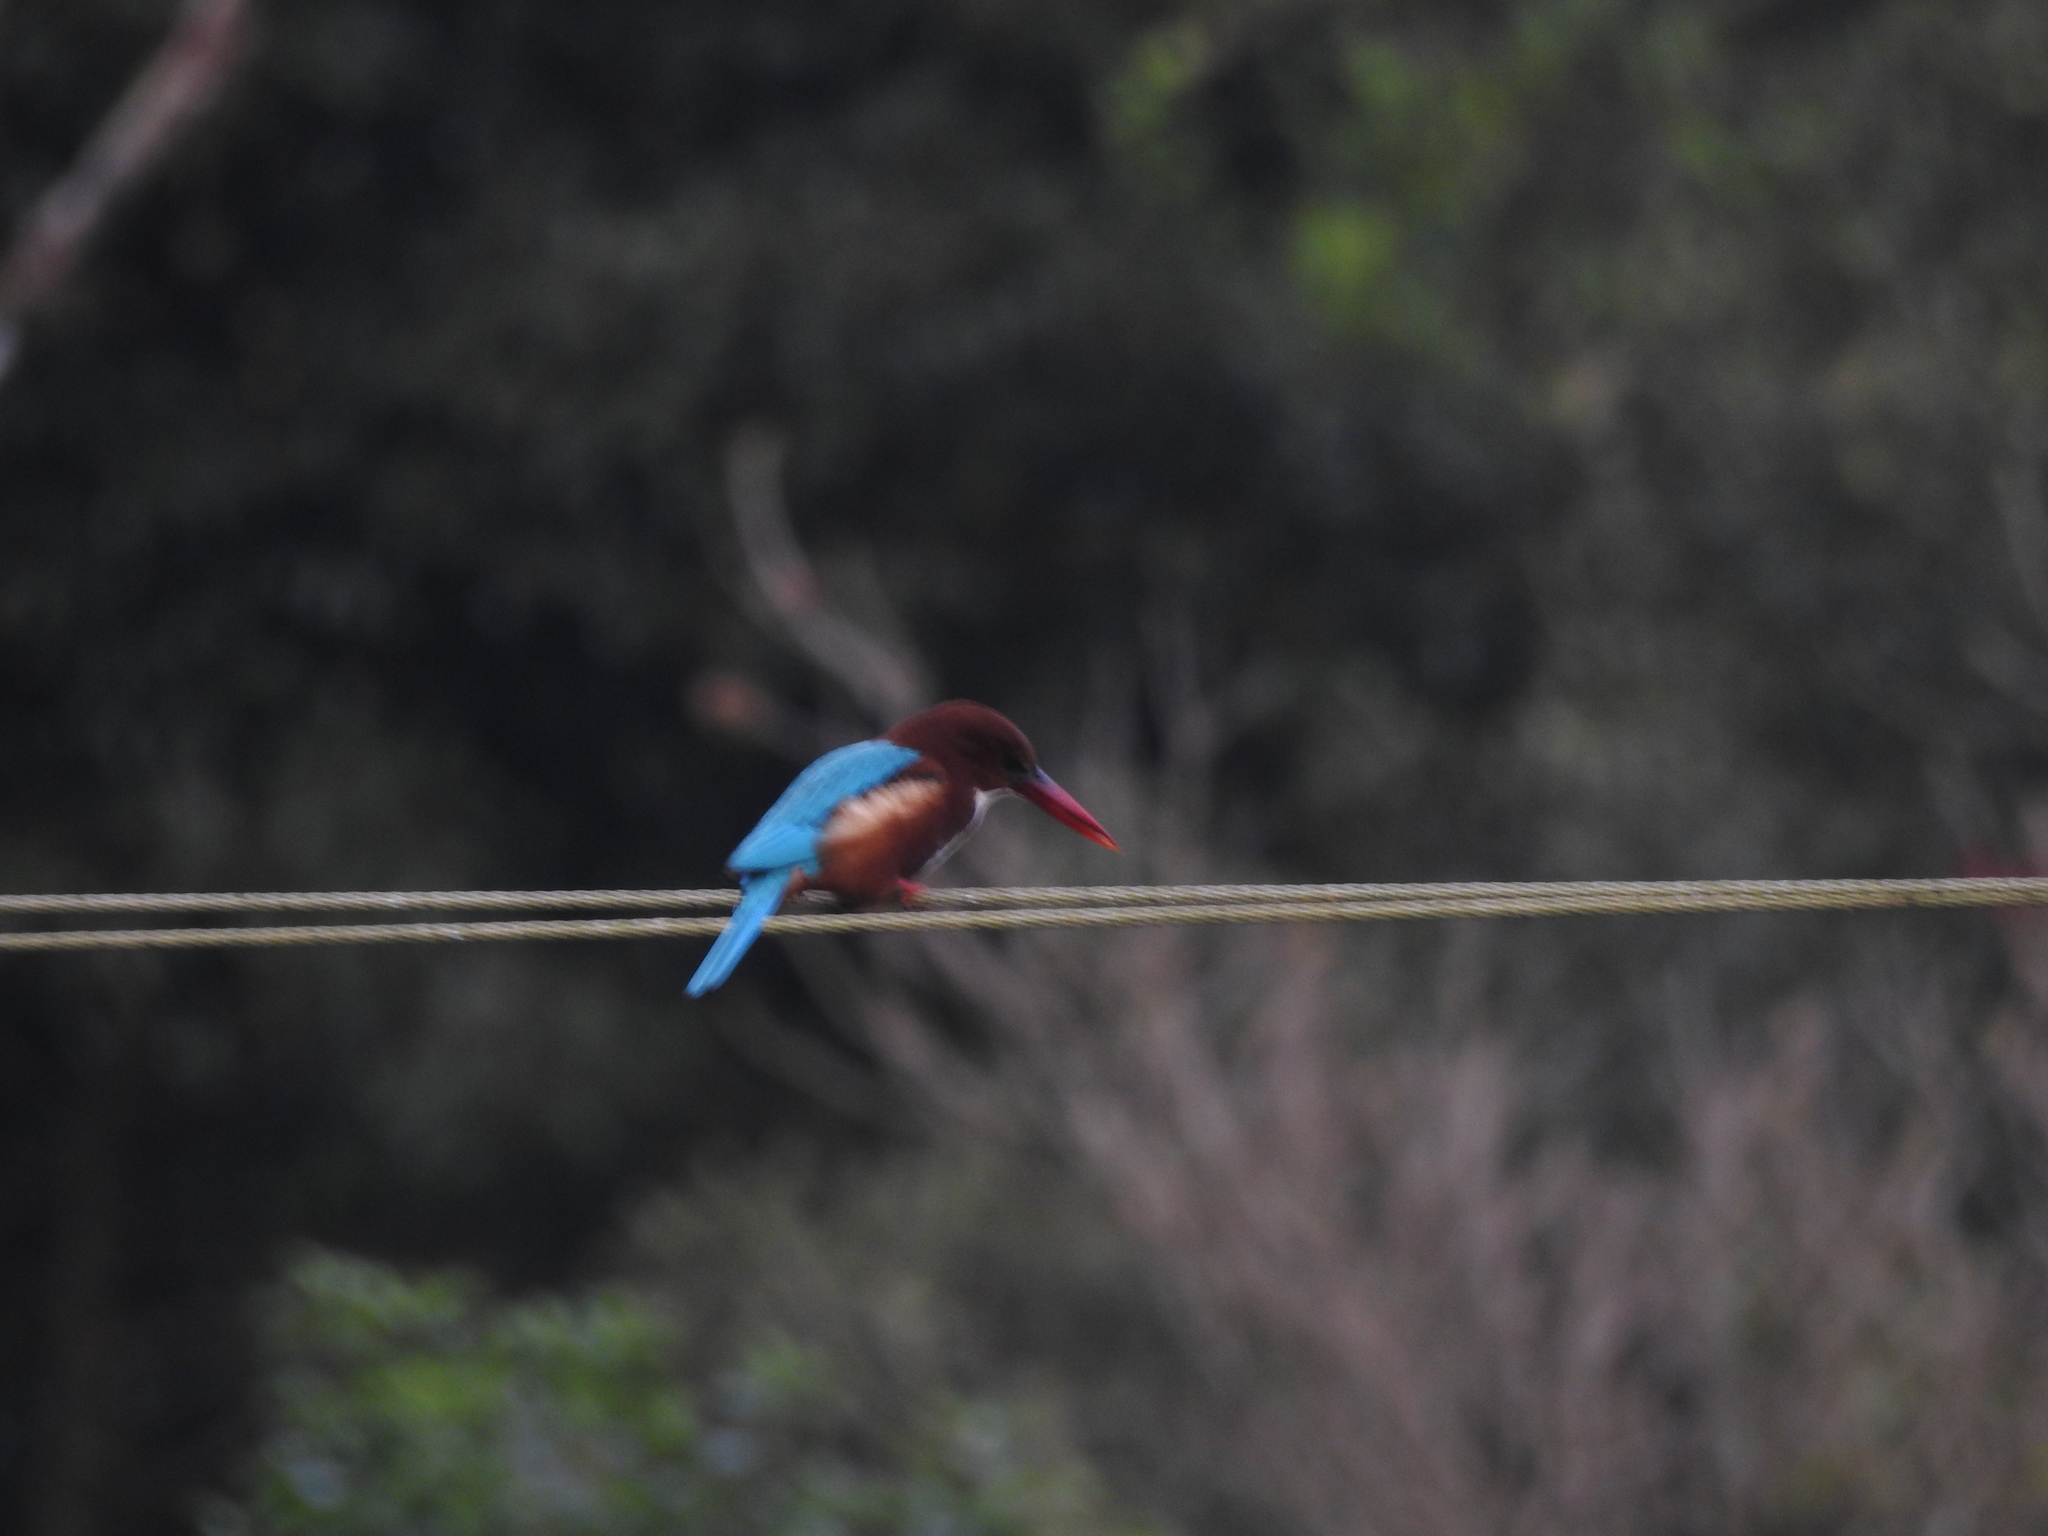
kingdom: Animalia
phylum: Chordata
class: Aves
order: Coraciiformes
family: Alcedinidae
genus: Halcyon
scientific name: Halcyon smyrnensis
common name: White-throated kingfisher
